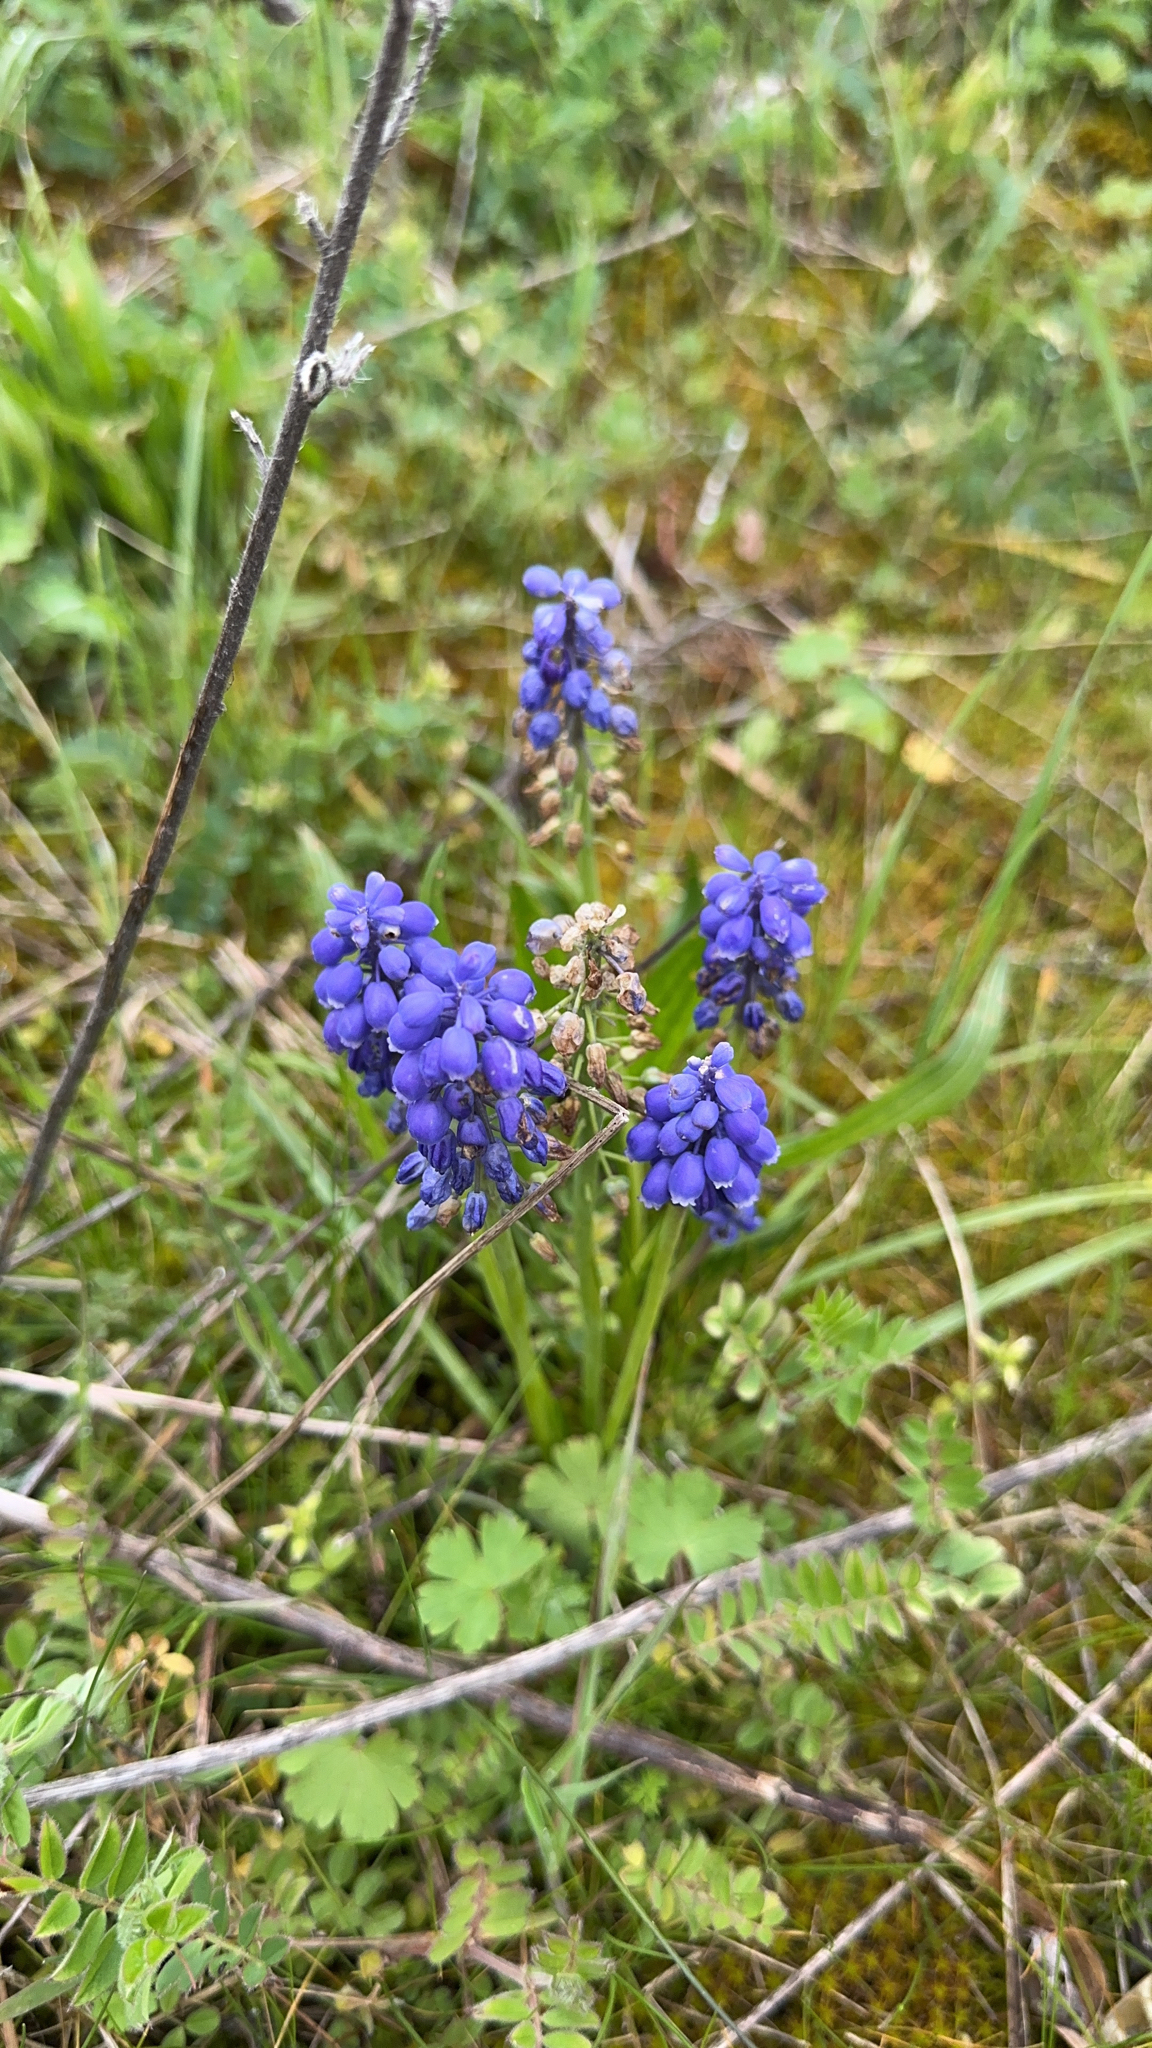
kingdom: Plantae
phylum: Tracheophyta
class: Liliopsida
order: Asparagales
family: Asparagaceae
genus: Muscari
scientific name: Muscari neglectum
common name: Grape-hyacinth
